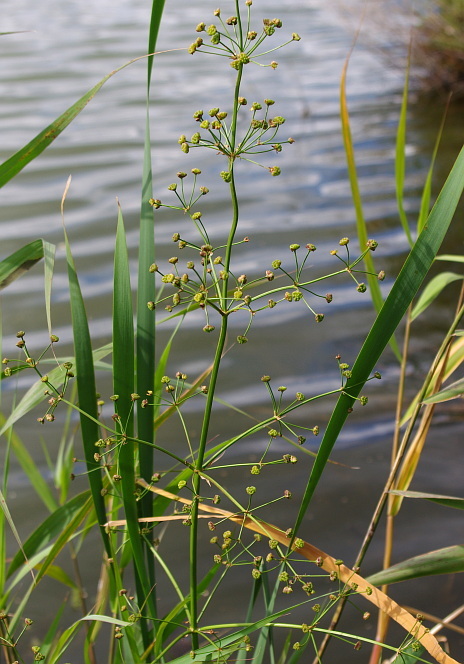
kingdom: Plantae
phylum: Tracheophyta
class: Liliopsida
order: Alismatales
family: Alismataceae
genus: Alisma
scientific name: Alisma plantago-aquatica
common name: Water-plantain
